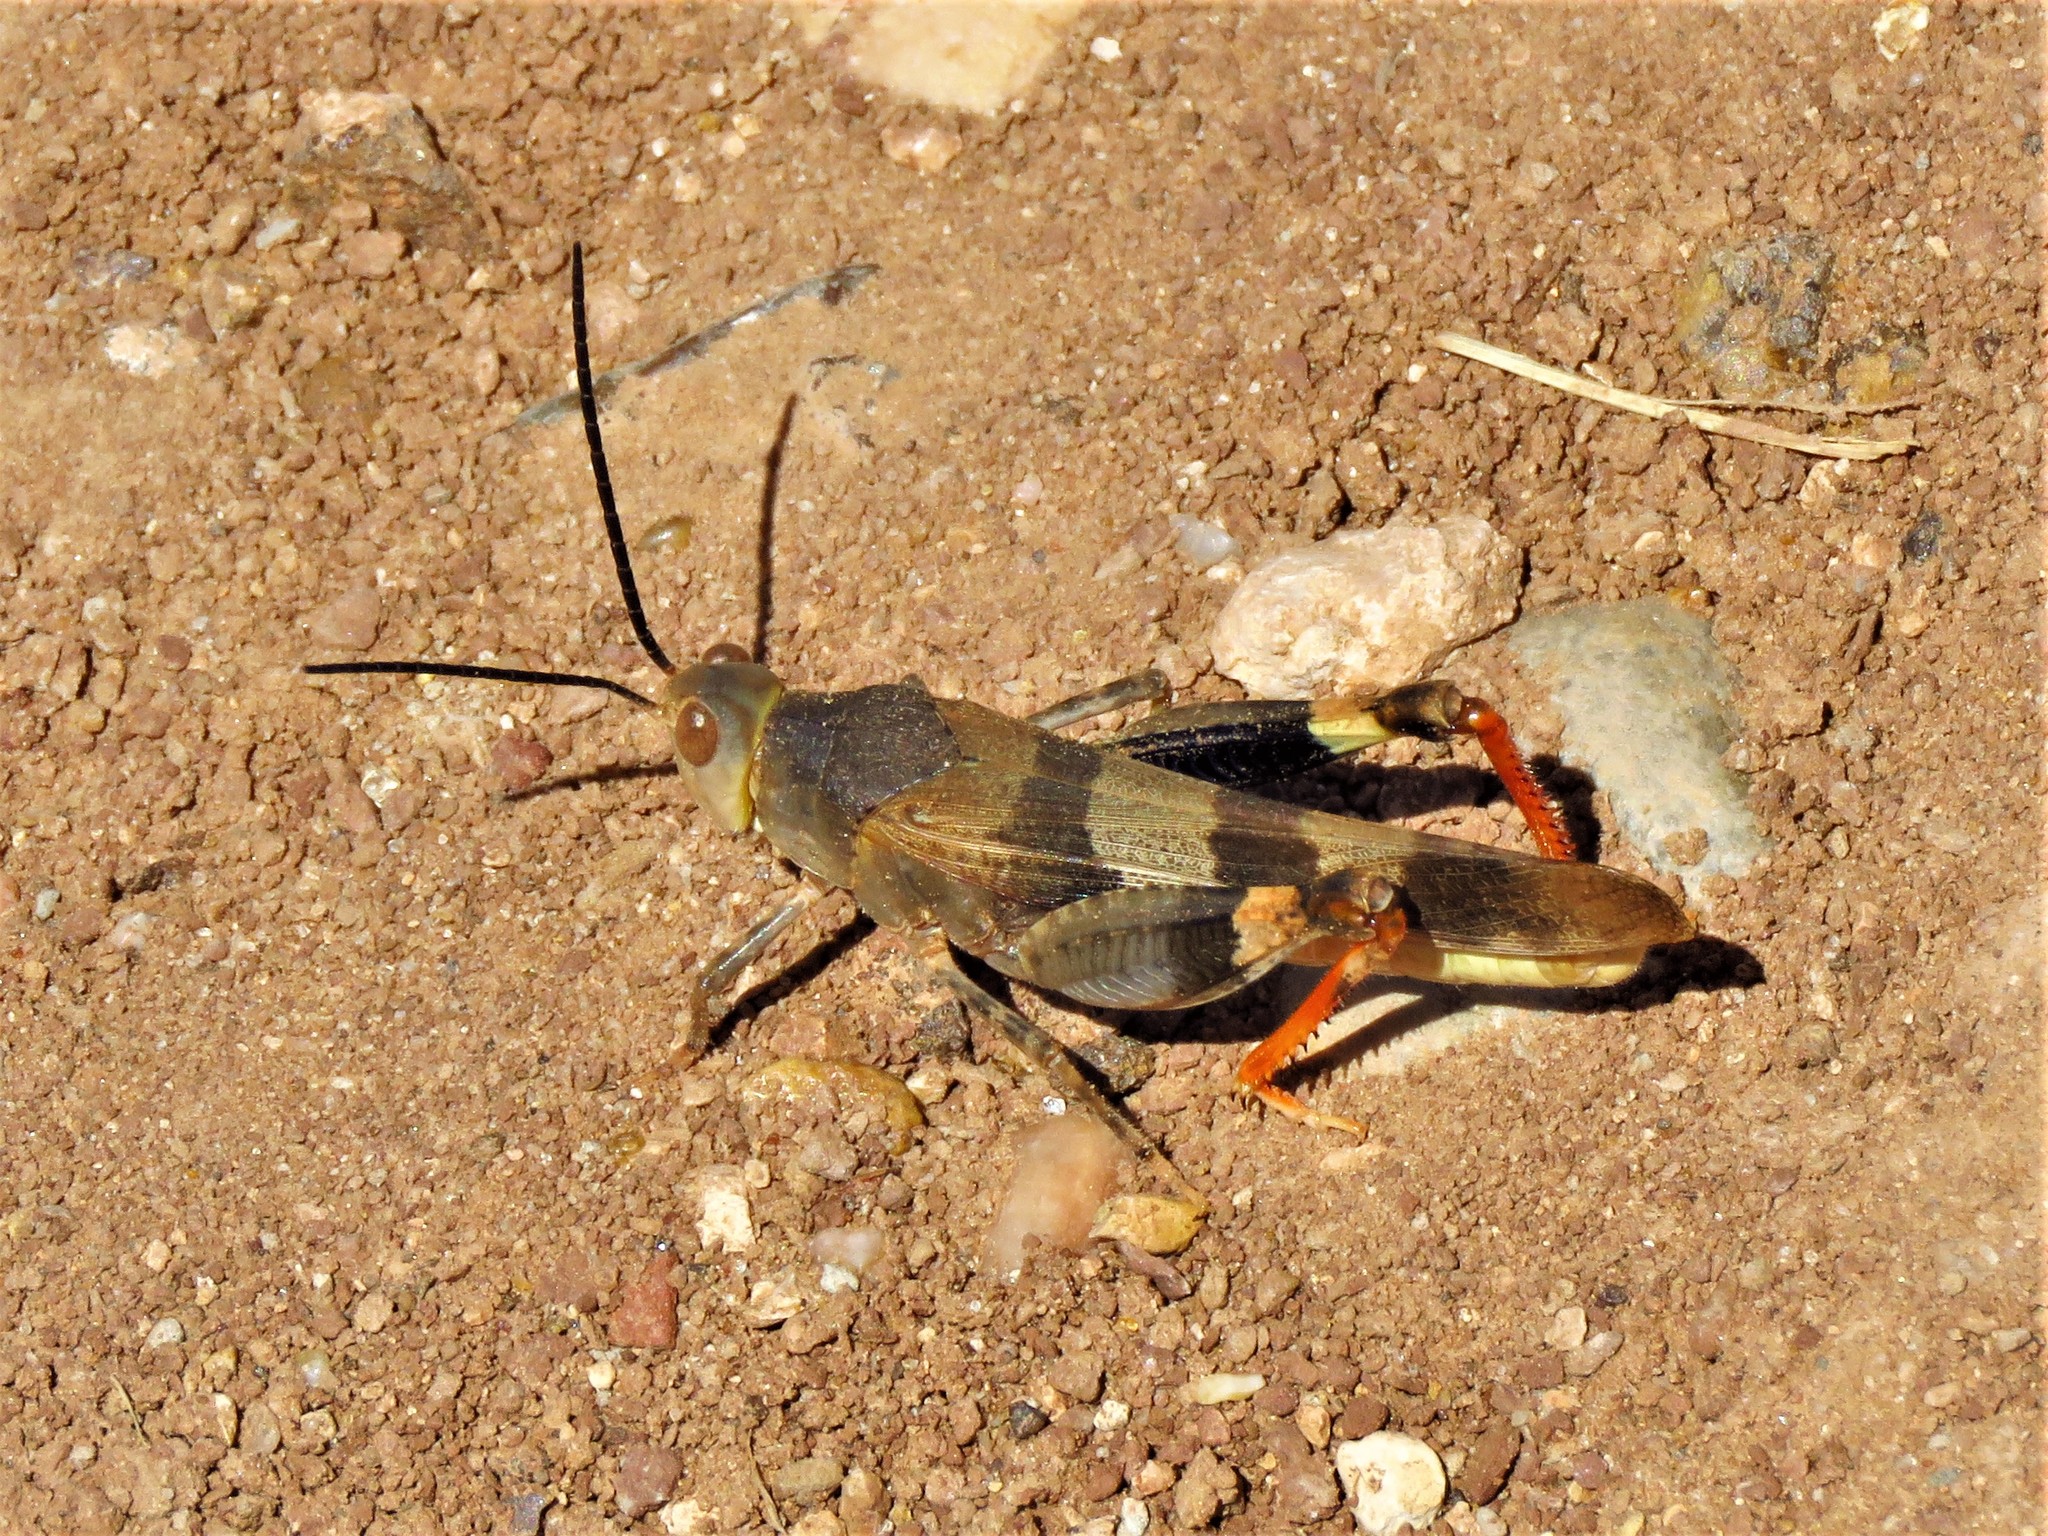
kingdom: Animalia
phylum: Arthropoda
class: Insecta
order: Orthoptera
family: Acrididae
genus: Hadrotettix
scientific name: Hadrotettix trifasciatus
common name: Threebanded grasshopper
